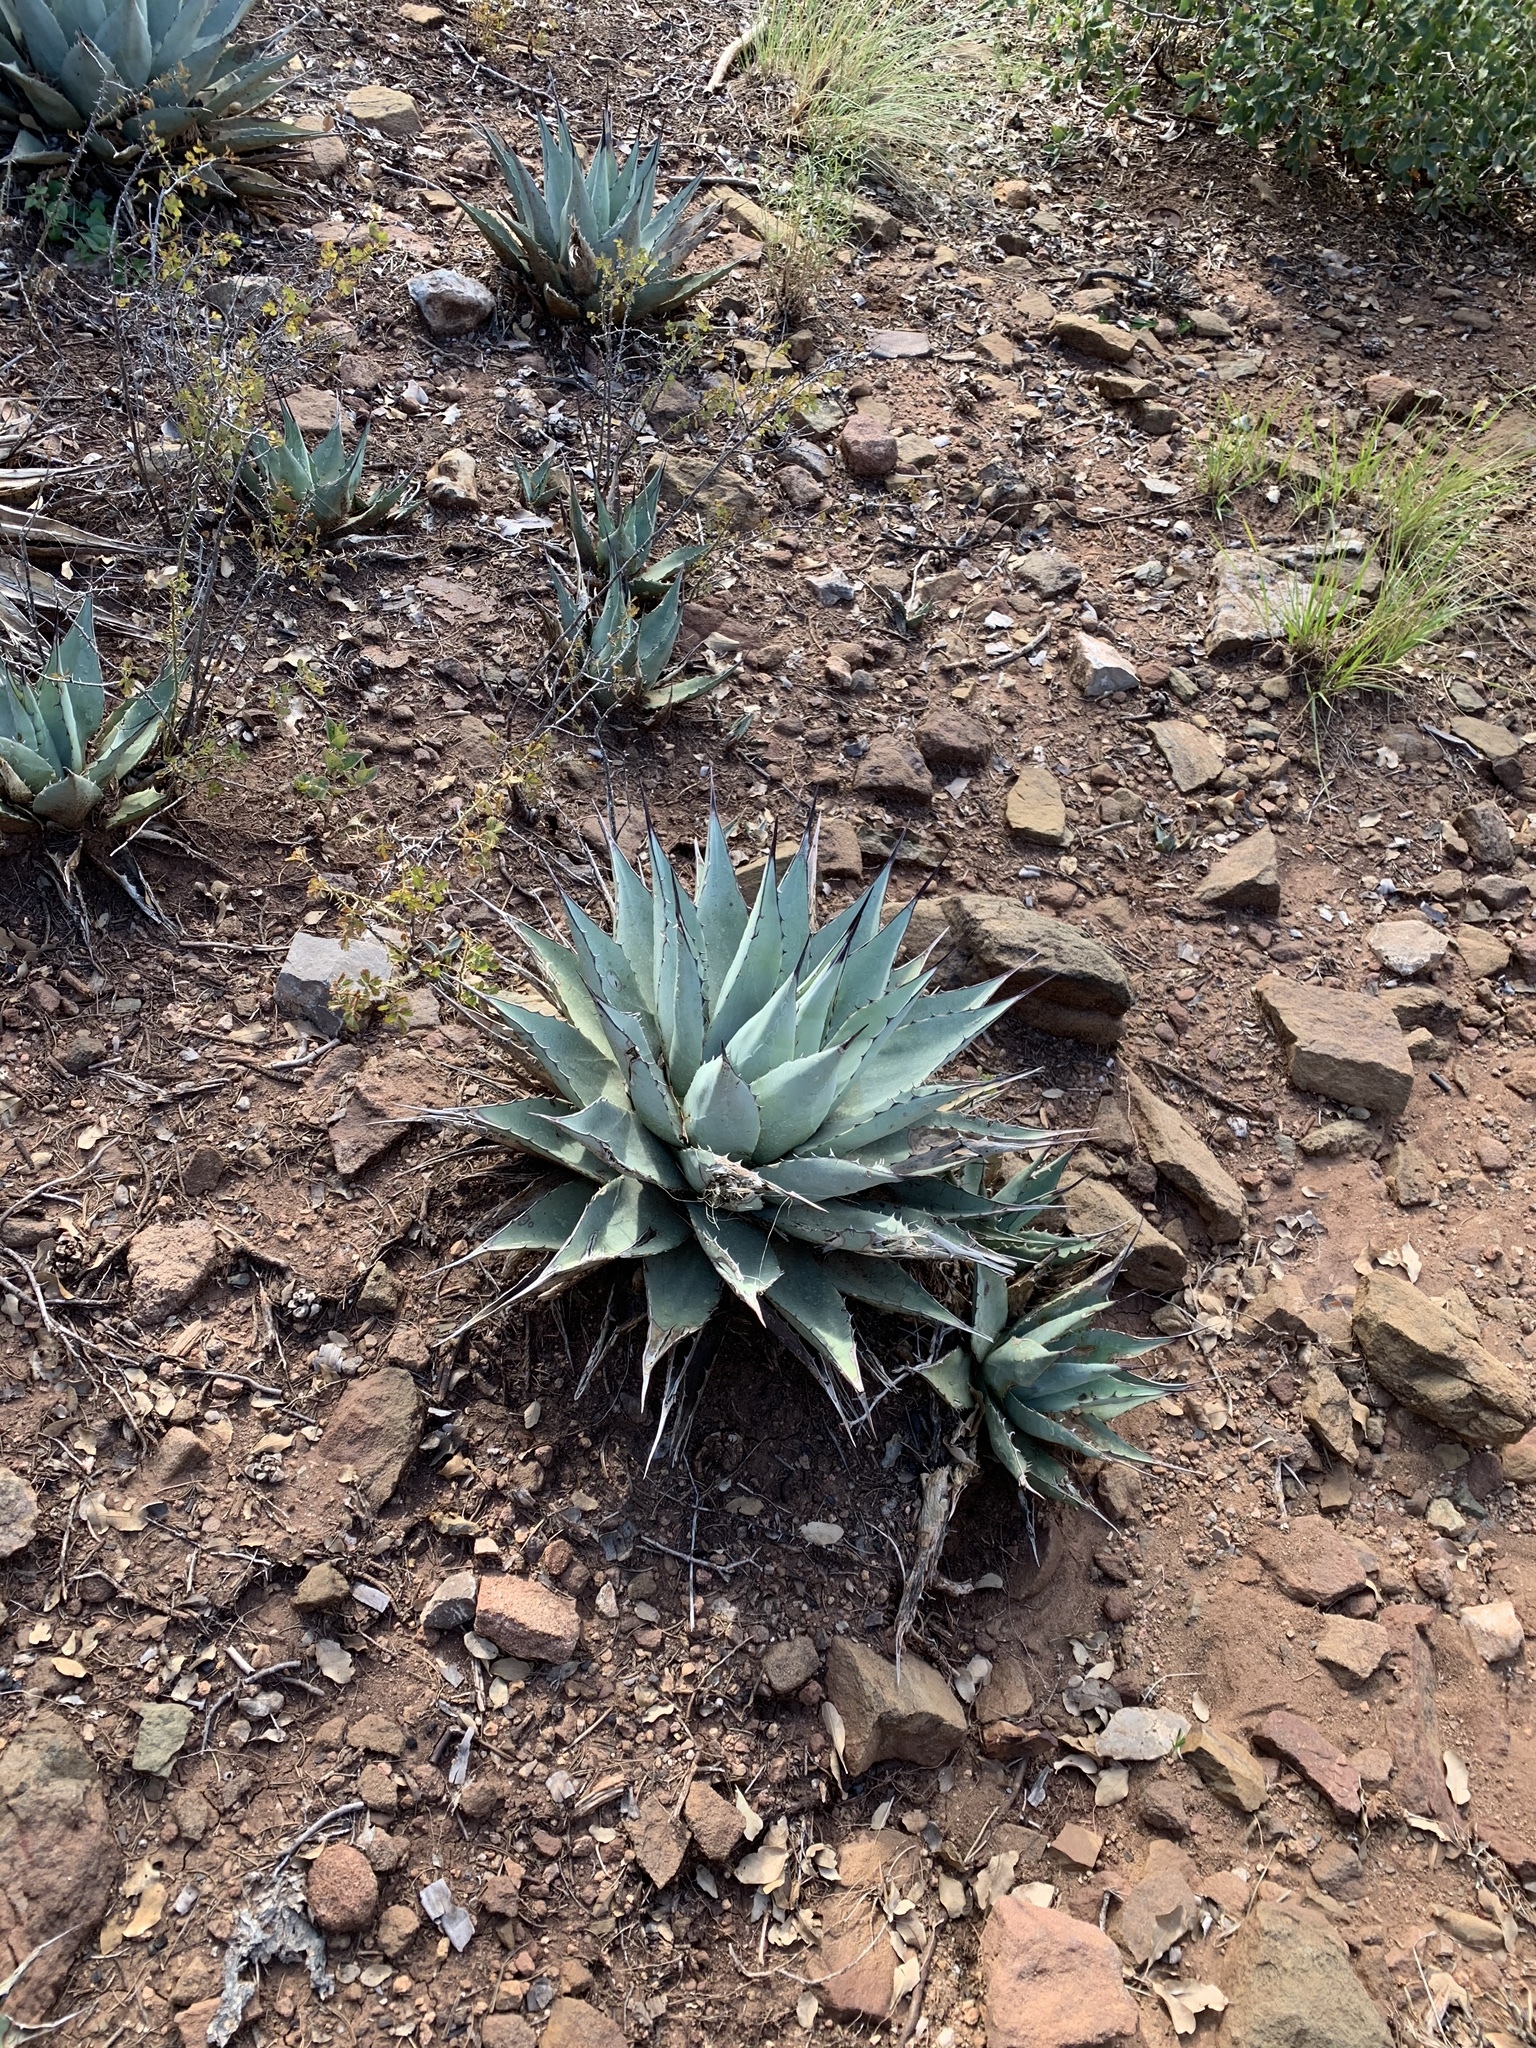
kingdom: Plantae
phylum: Tracheophyta
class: Liliopsida
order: Asparagales
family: Asparagaceae
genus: Agave
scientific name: Agave parryi
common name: Parry's agave
